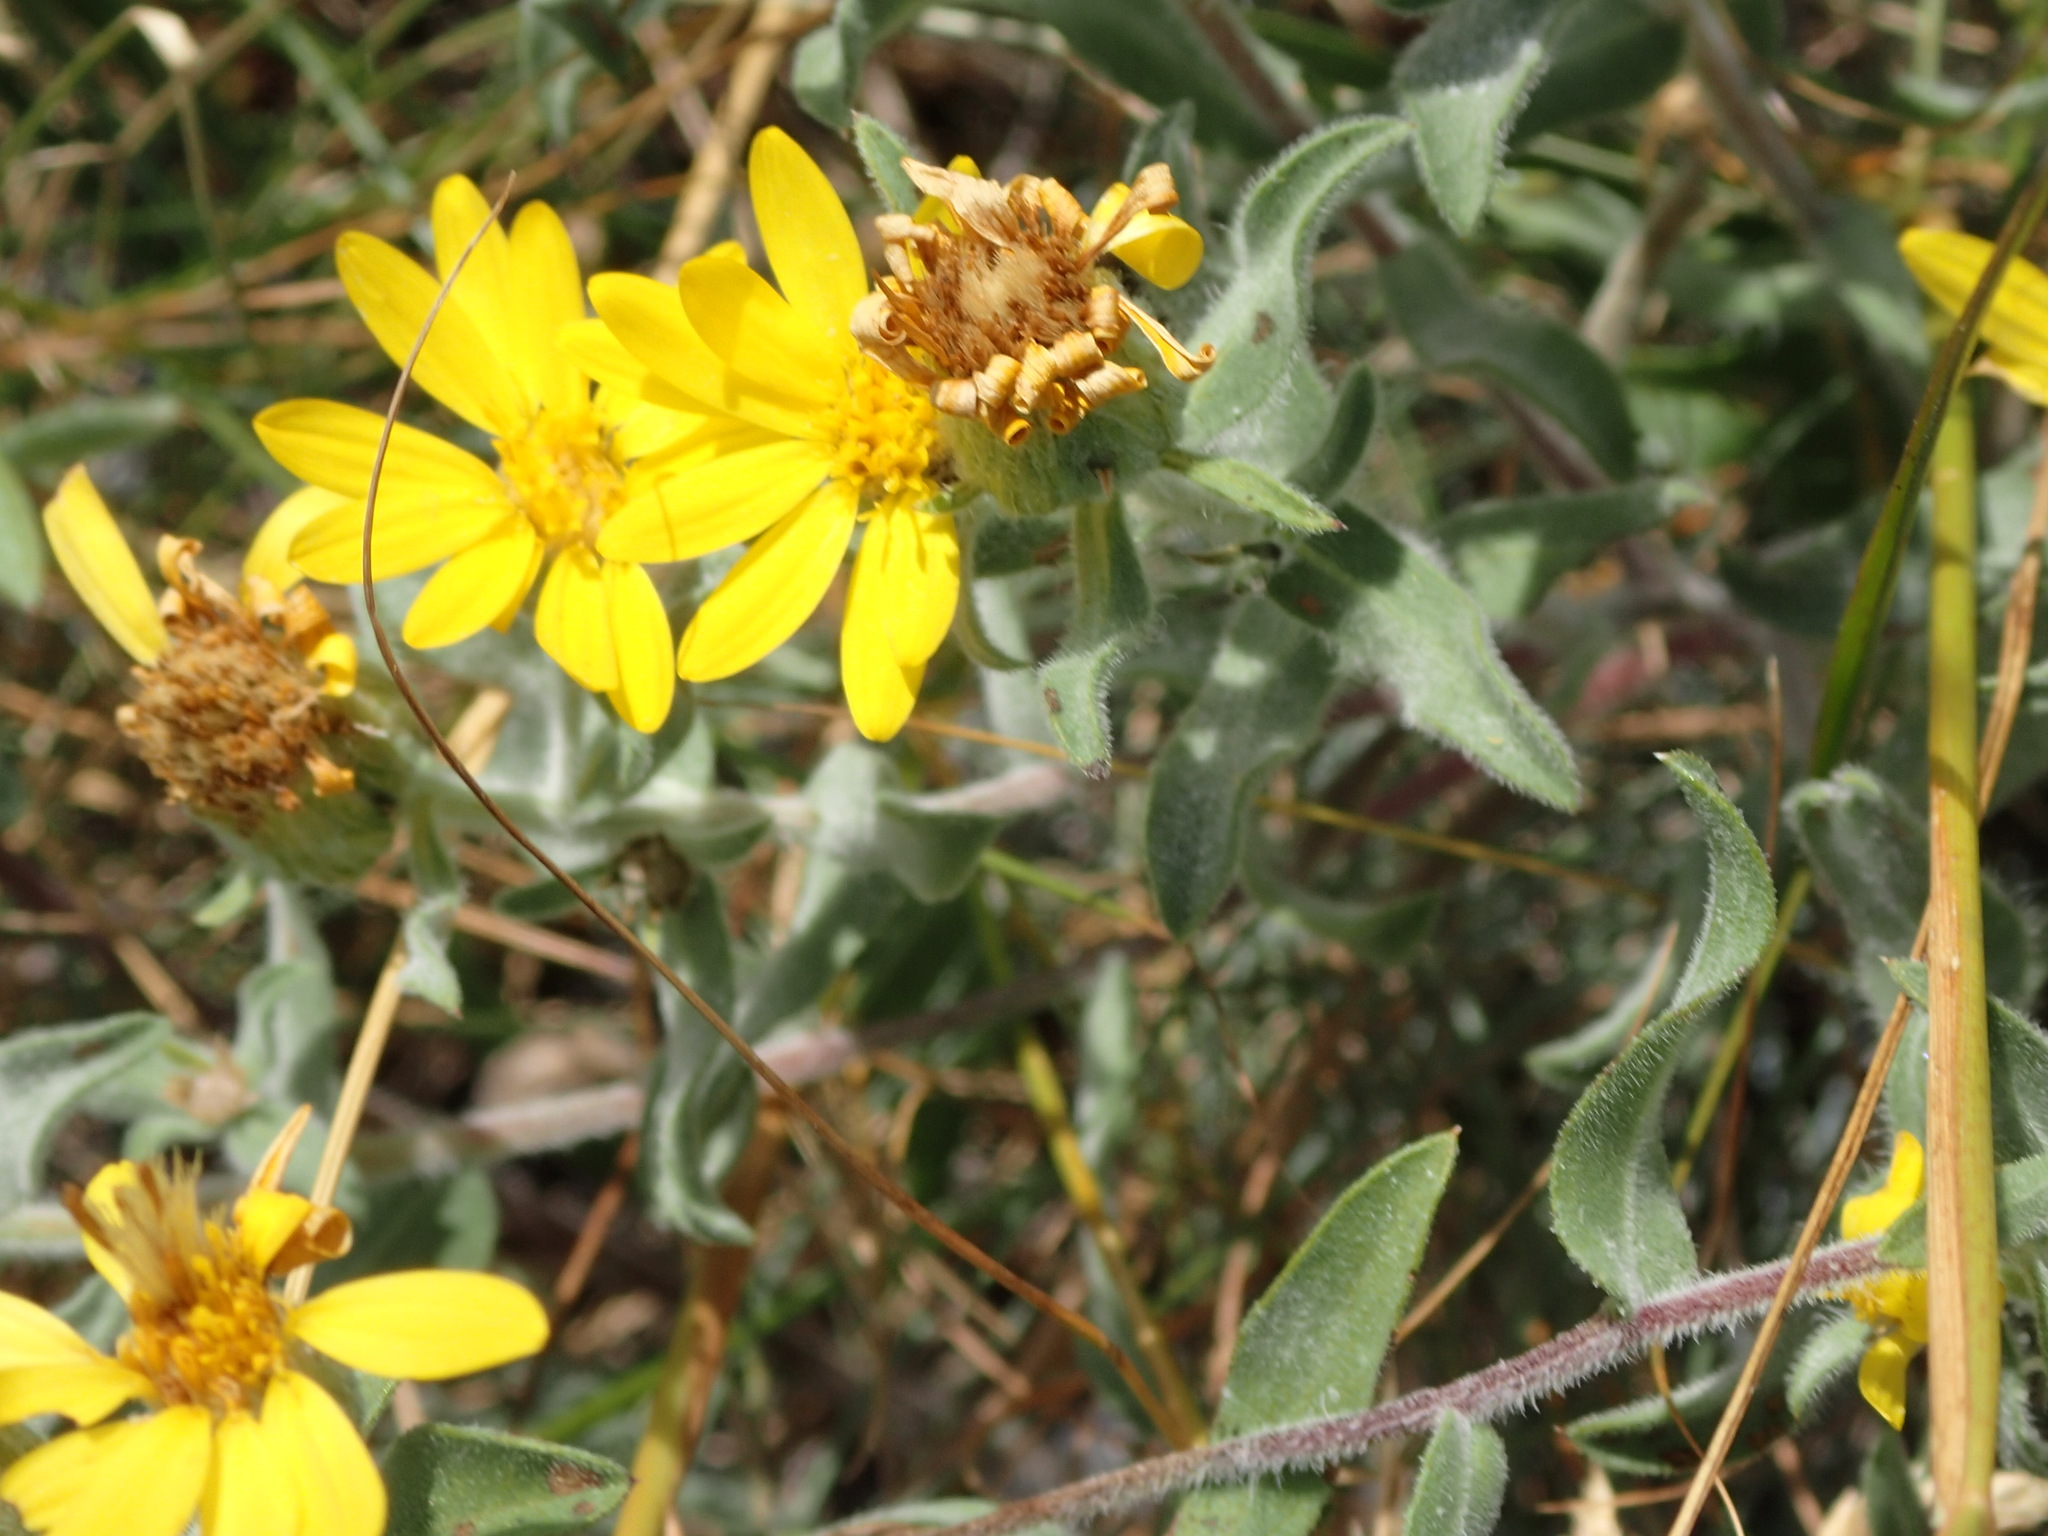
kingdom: Plantae
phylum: Tracheophyta
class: Magnoliopsida
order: Asterales
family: Asteraceae
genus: Heterotheca
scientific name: Heterotheca villosa
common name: Hairy false goldenaster
